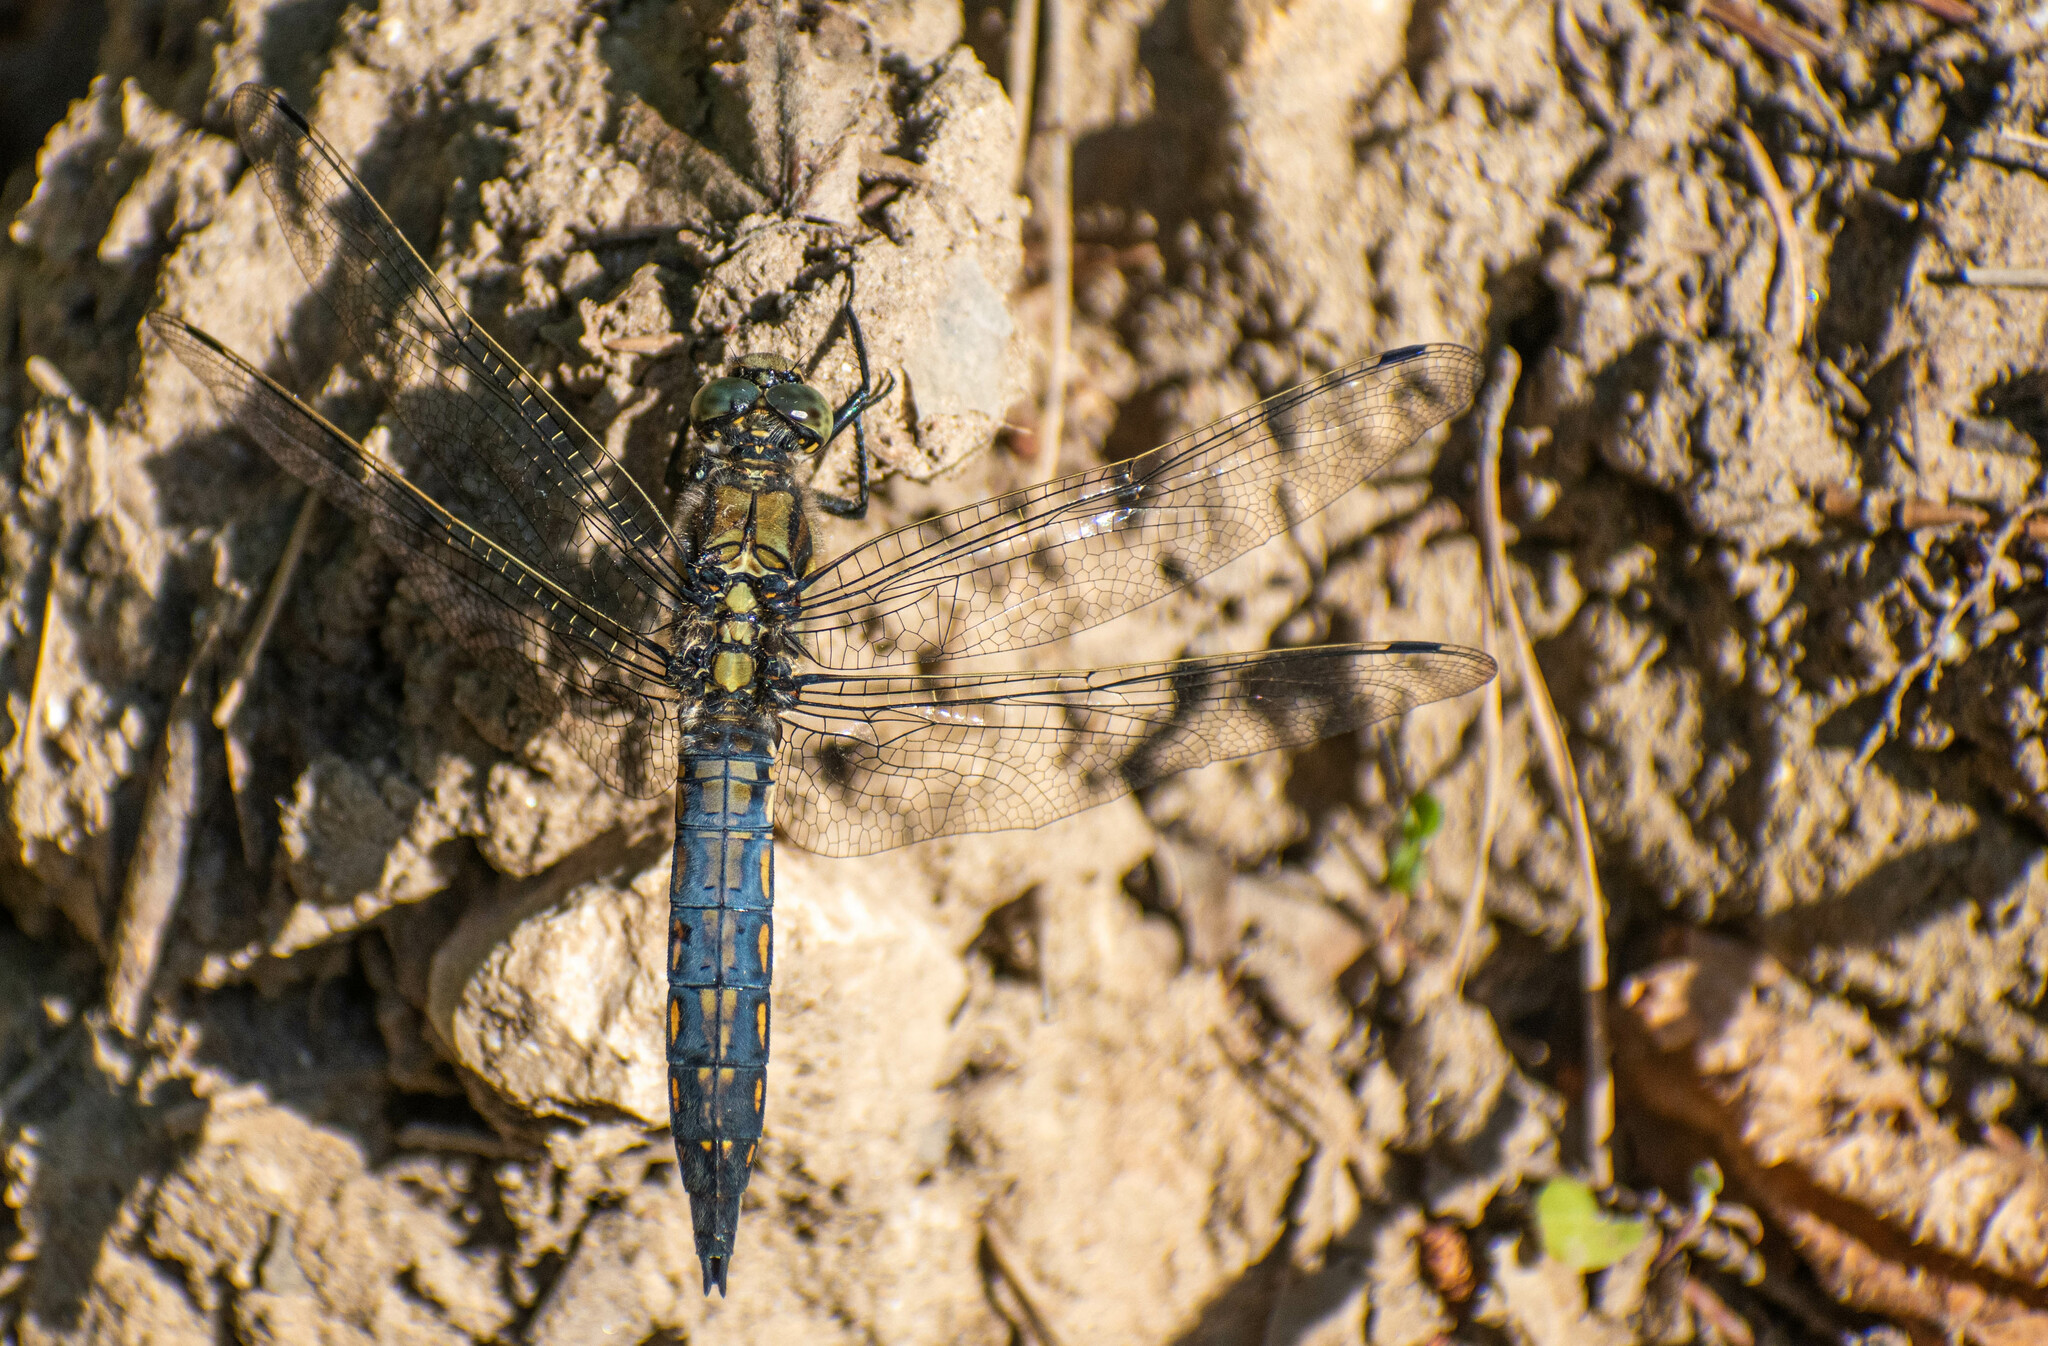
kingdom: Animalia
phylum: Arthropoda
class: Insecta
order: Odonata
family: Libellulidae
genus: Orthetrum
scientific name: Orthetrum cancellatum
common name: Black-tailed skimmer
